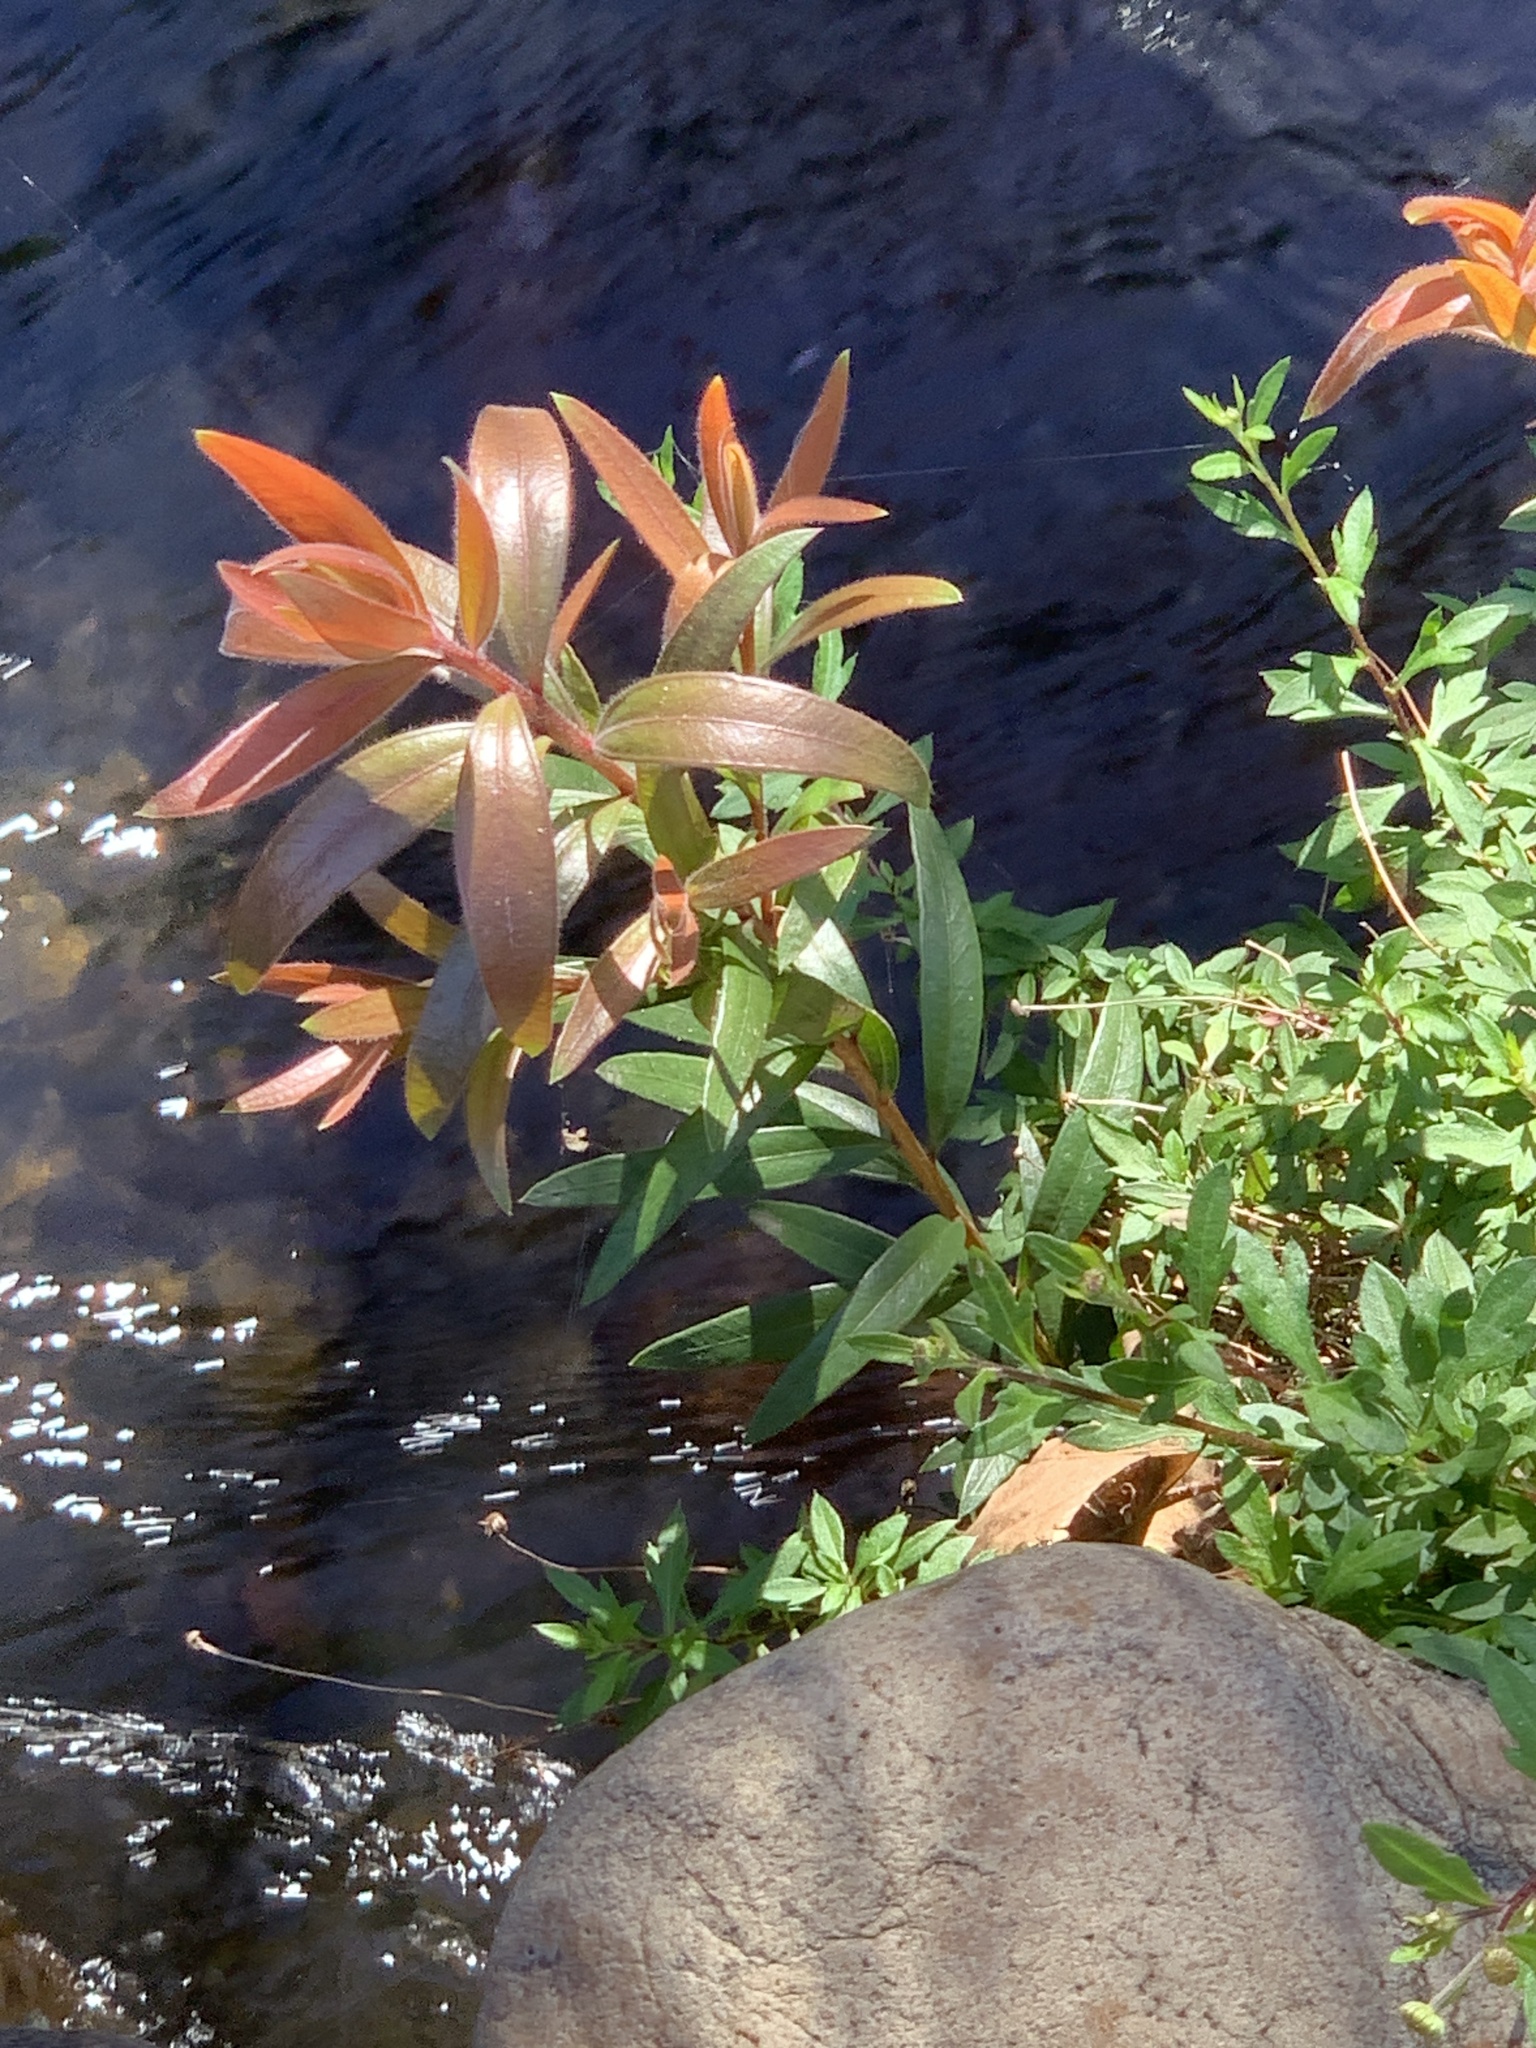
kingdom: Plantae
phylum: Tracheophyta
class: Magnoliopsida
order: Myrtales
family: Myrtaceae
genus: Callistemon
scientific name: Callistemon viminalis
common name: Drooping bottlebrush
